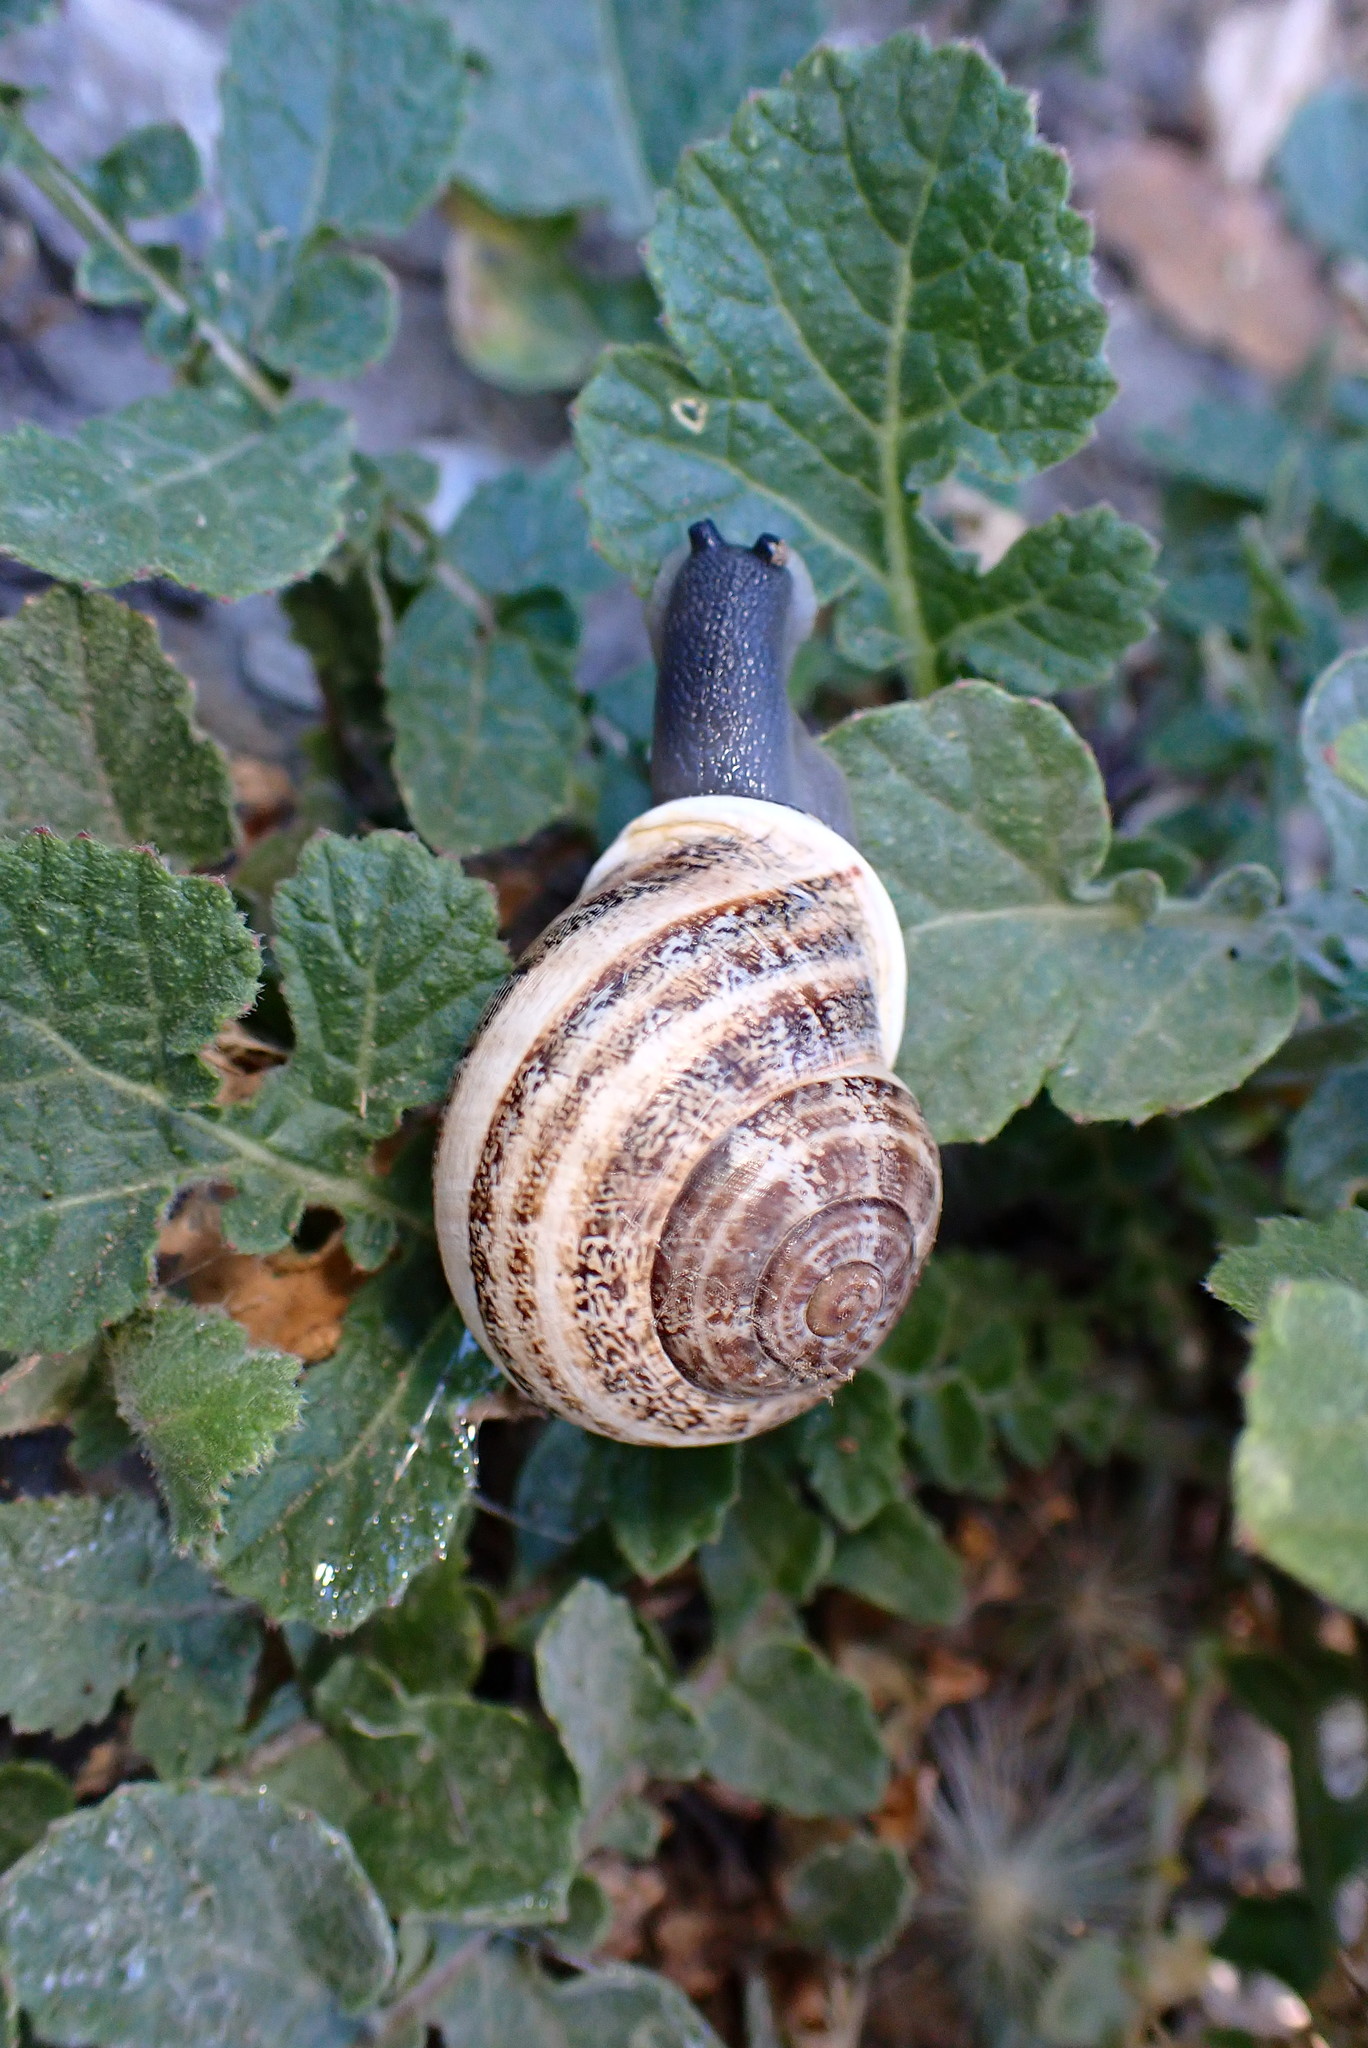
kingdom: Animalia
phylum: Mollusca
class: Gastropoda
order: Stylommatophora
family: Helicidae
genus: Otala
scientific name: Otala lactea
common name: Milk snail
